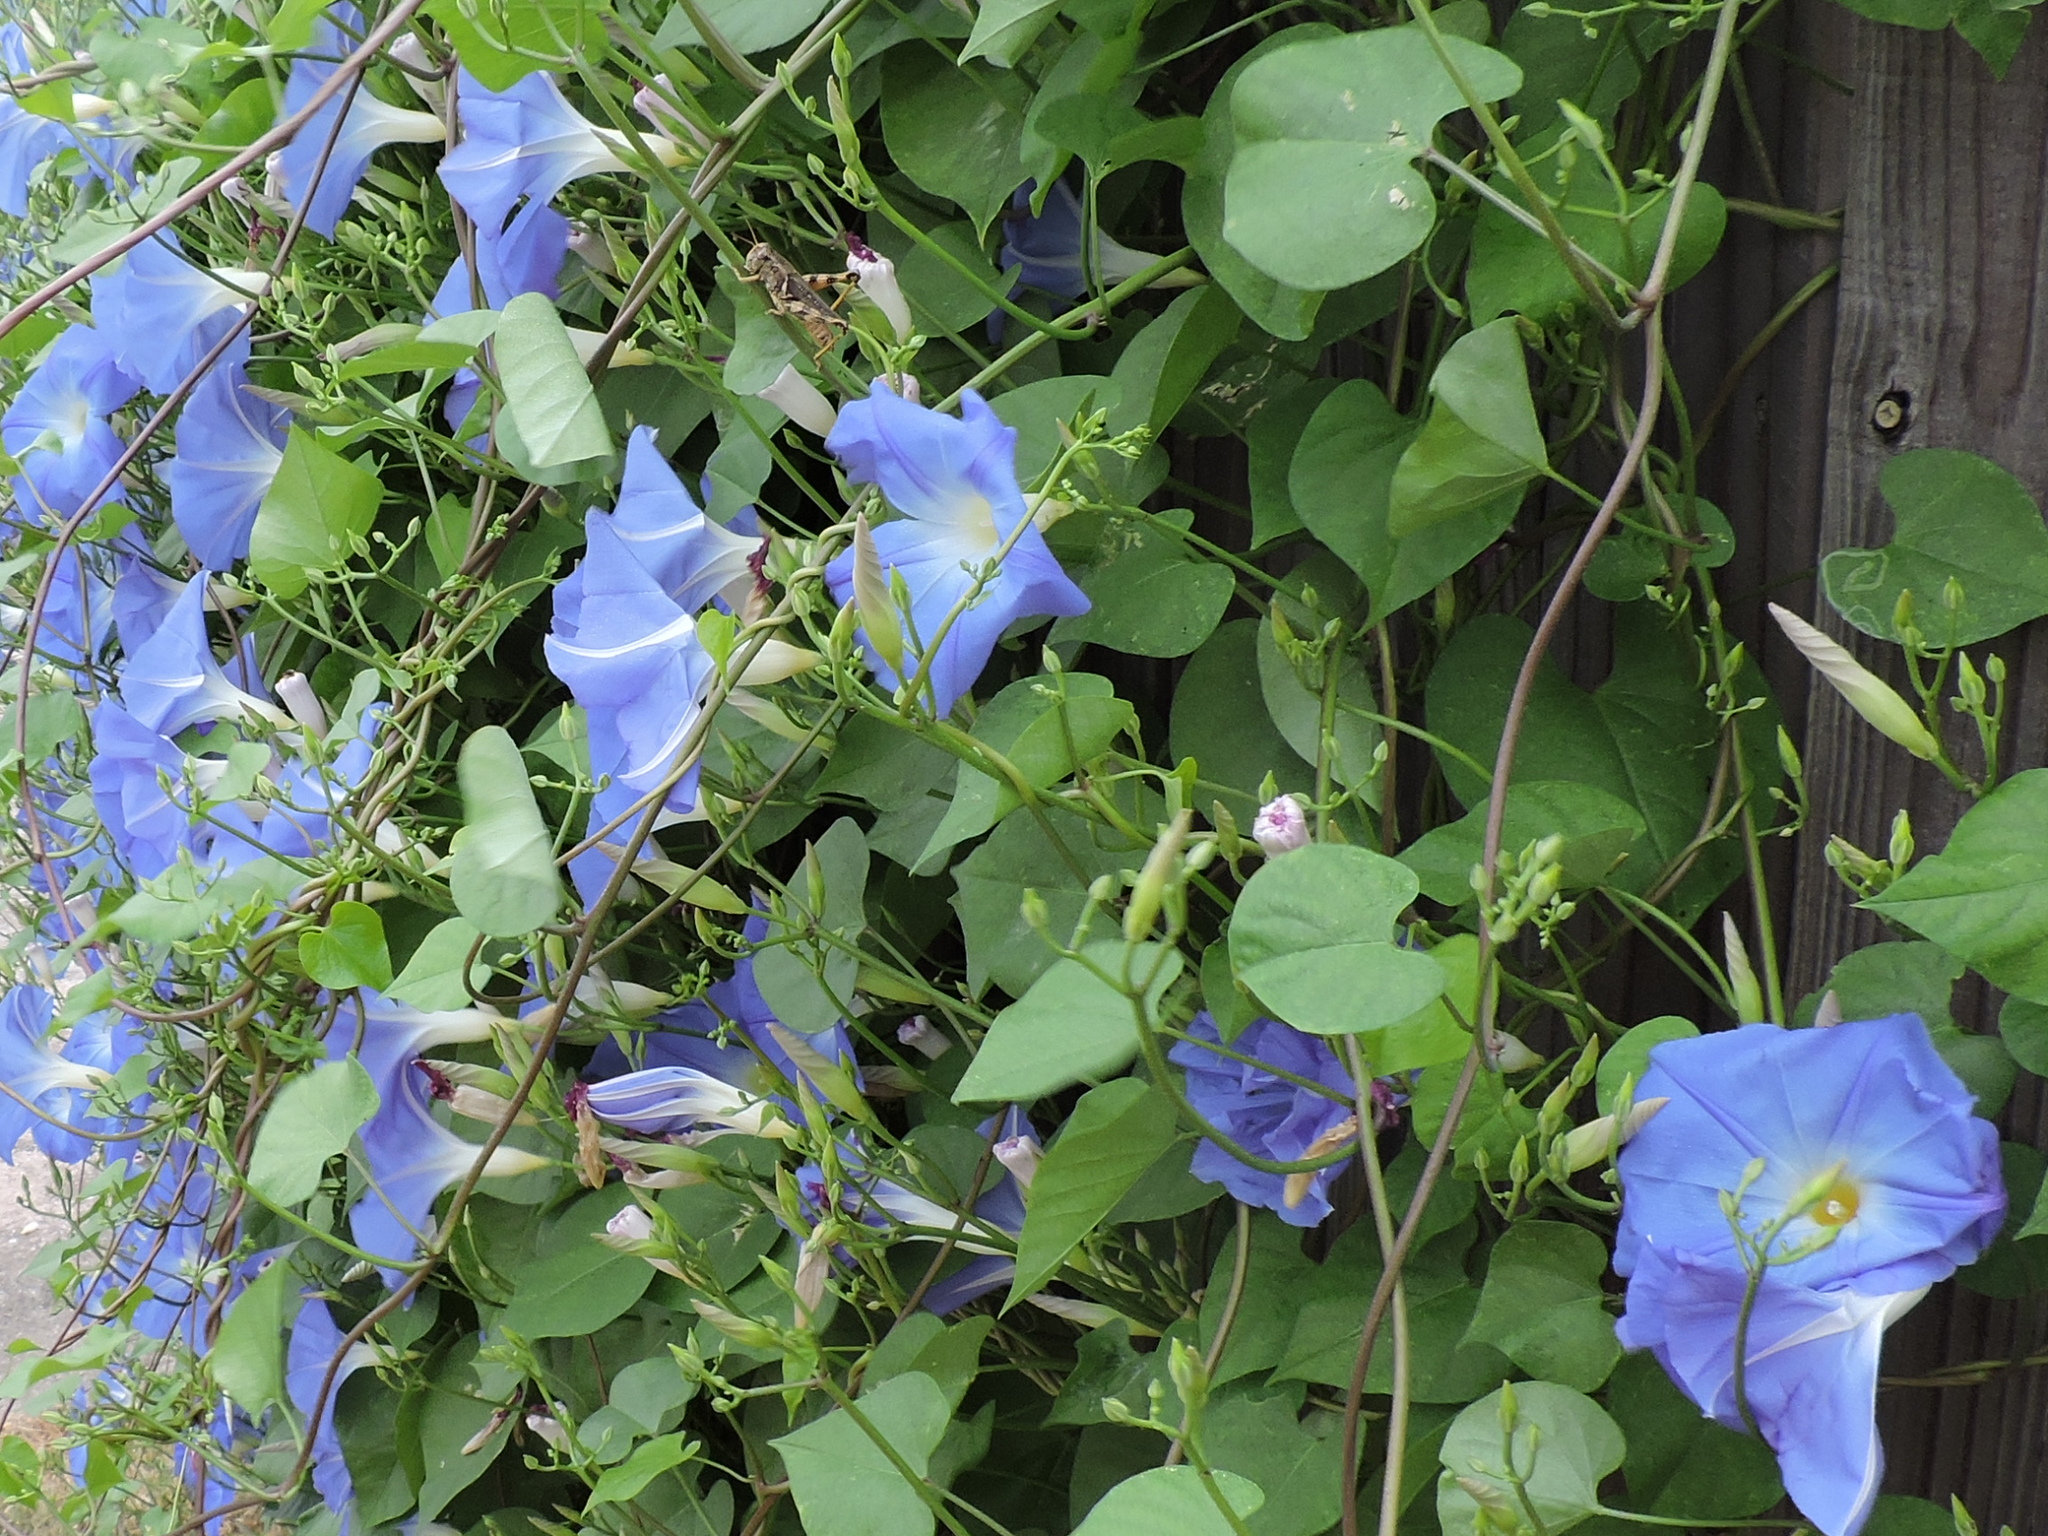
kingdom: Plantae
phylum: Tracheophyta
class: Magnoliopsida
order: Solanales
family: Convolvulaceae
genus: Ipomoea
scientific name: Ipomoea tricolor
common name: Morning-glory
